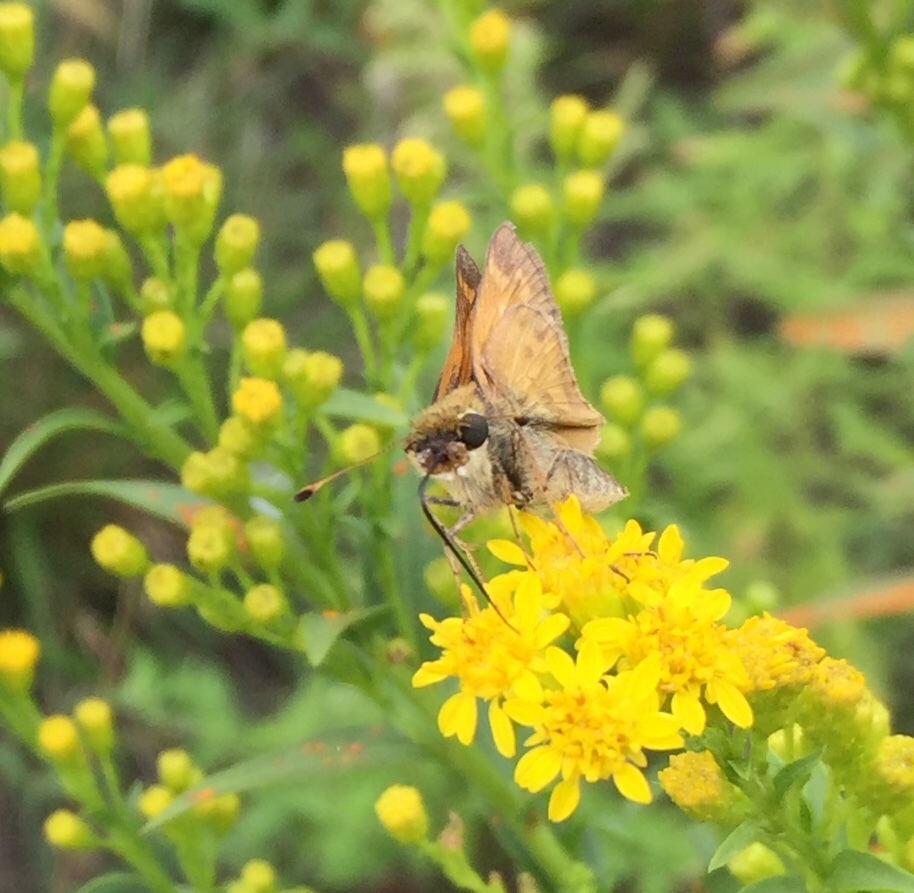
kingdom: Animalia
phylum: Arthropoda
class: Insecta
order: Lepidoptera
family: Hesperiidae
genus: Atalopedes
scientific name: Atalopedes
